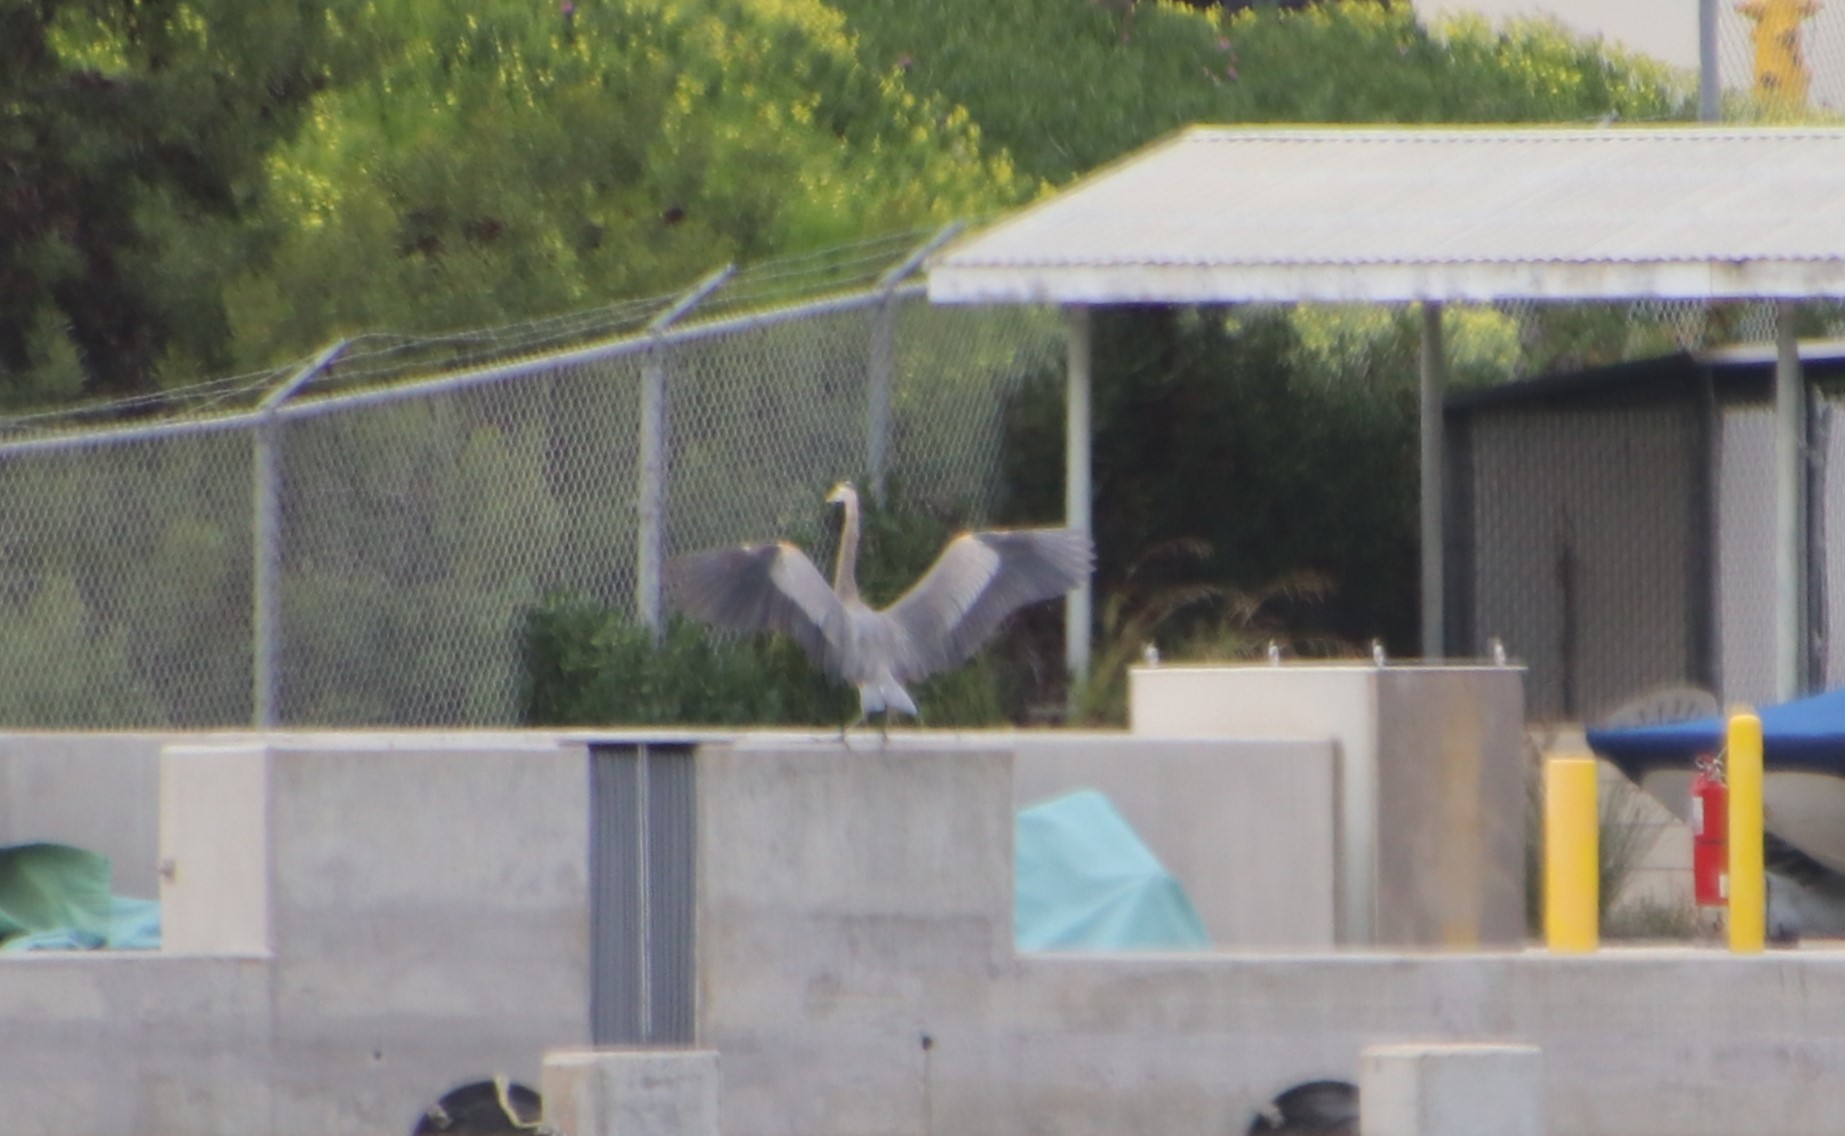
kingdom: Animalia
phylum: Chordata
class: Aves
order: Pelecaniformes
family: Ardeidae
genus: Ardea
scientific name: Ardea herodias
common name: Great blue heron
